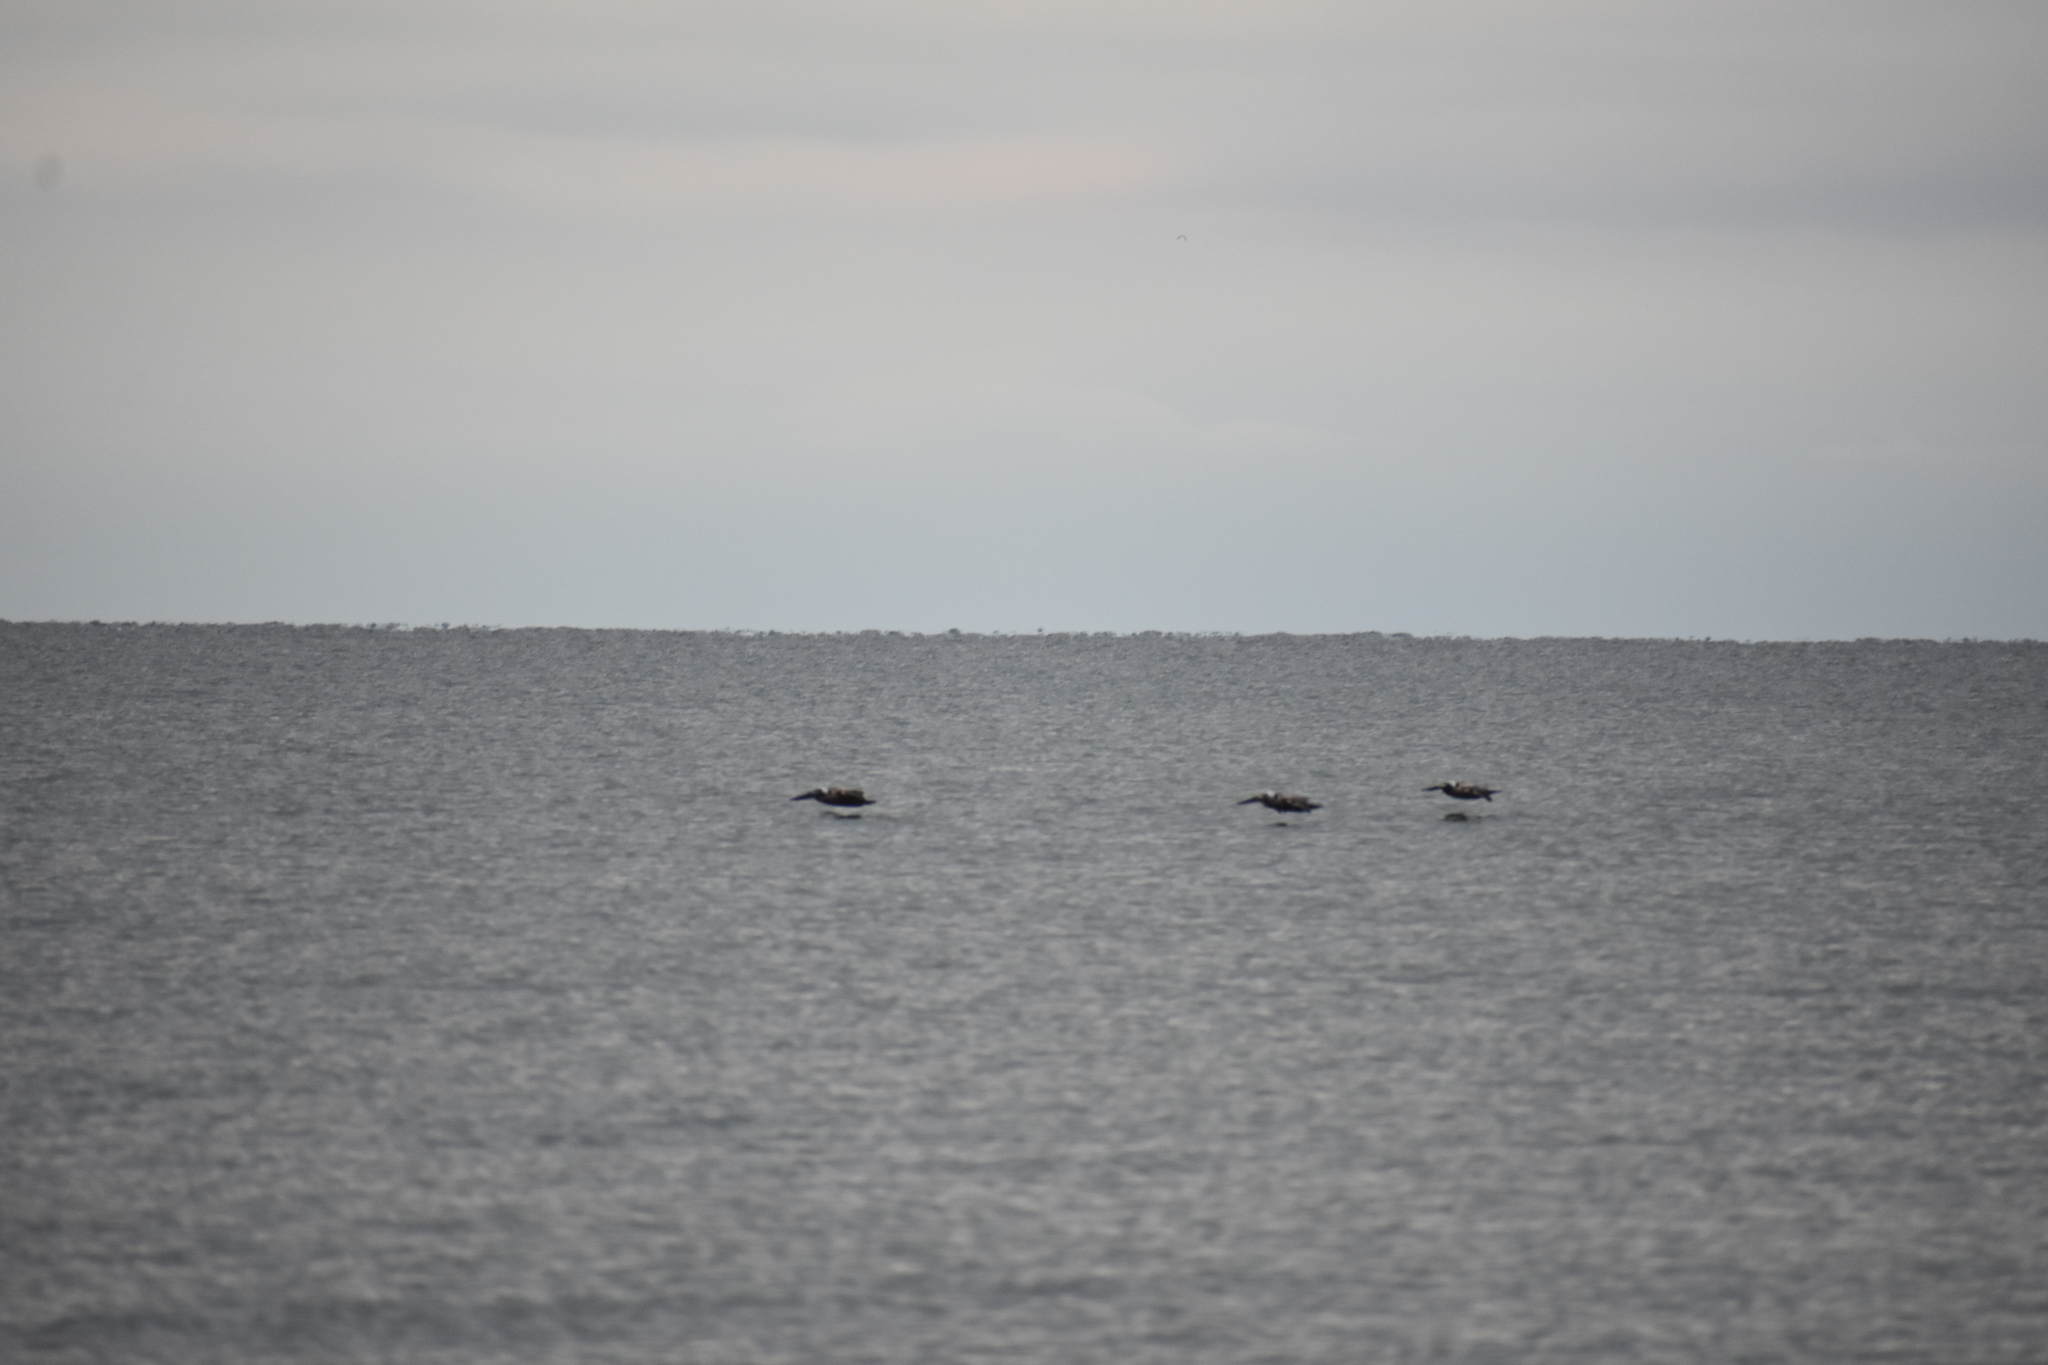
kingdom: Animalia
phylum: Chordata
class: Aves
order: Pelecaniformes
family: Pelecanidae
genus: Pelecanus
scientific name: Pelecanus occidentalis
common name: Brown pelican
